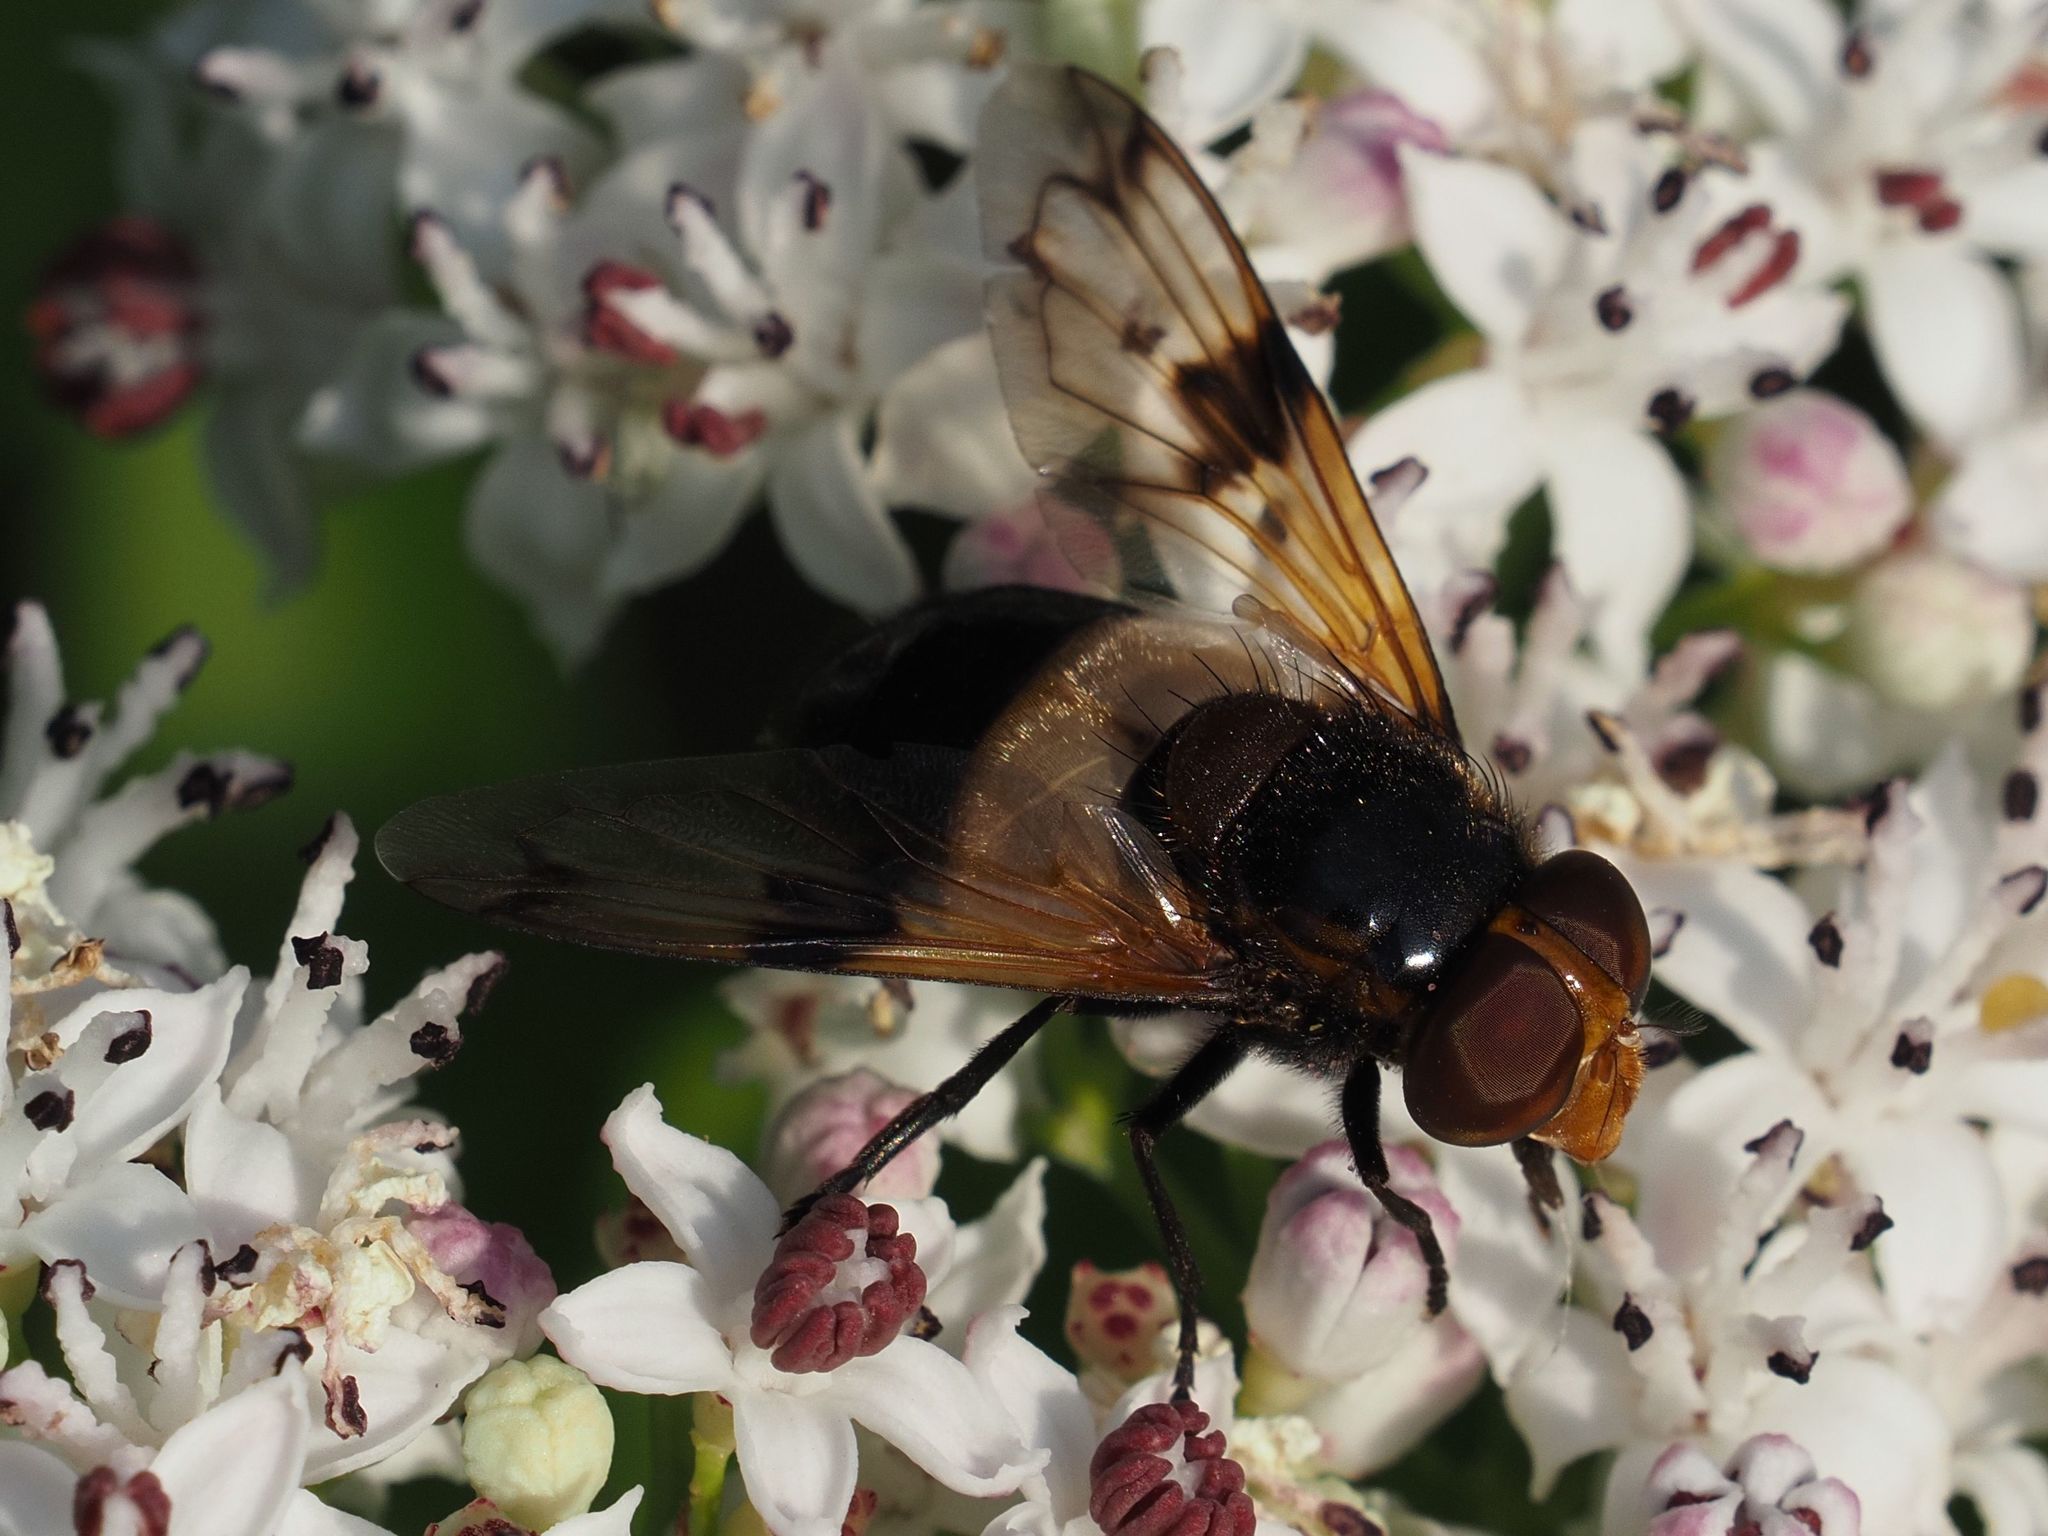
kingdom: Animalia
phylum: Arthropoda
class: Insecta
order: Diptera
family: Syrphidae
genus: Volucella
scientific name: Volucella pellucens
